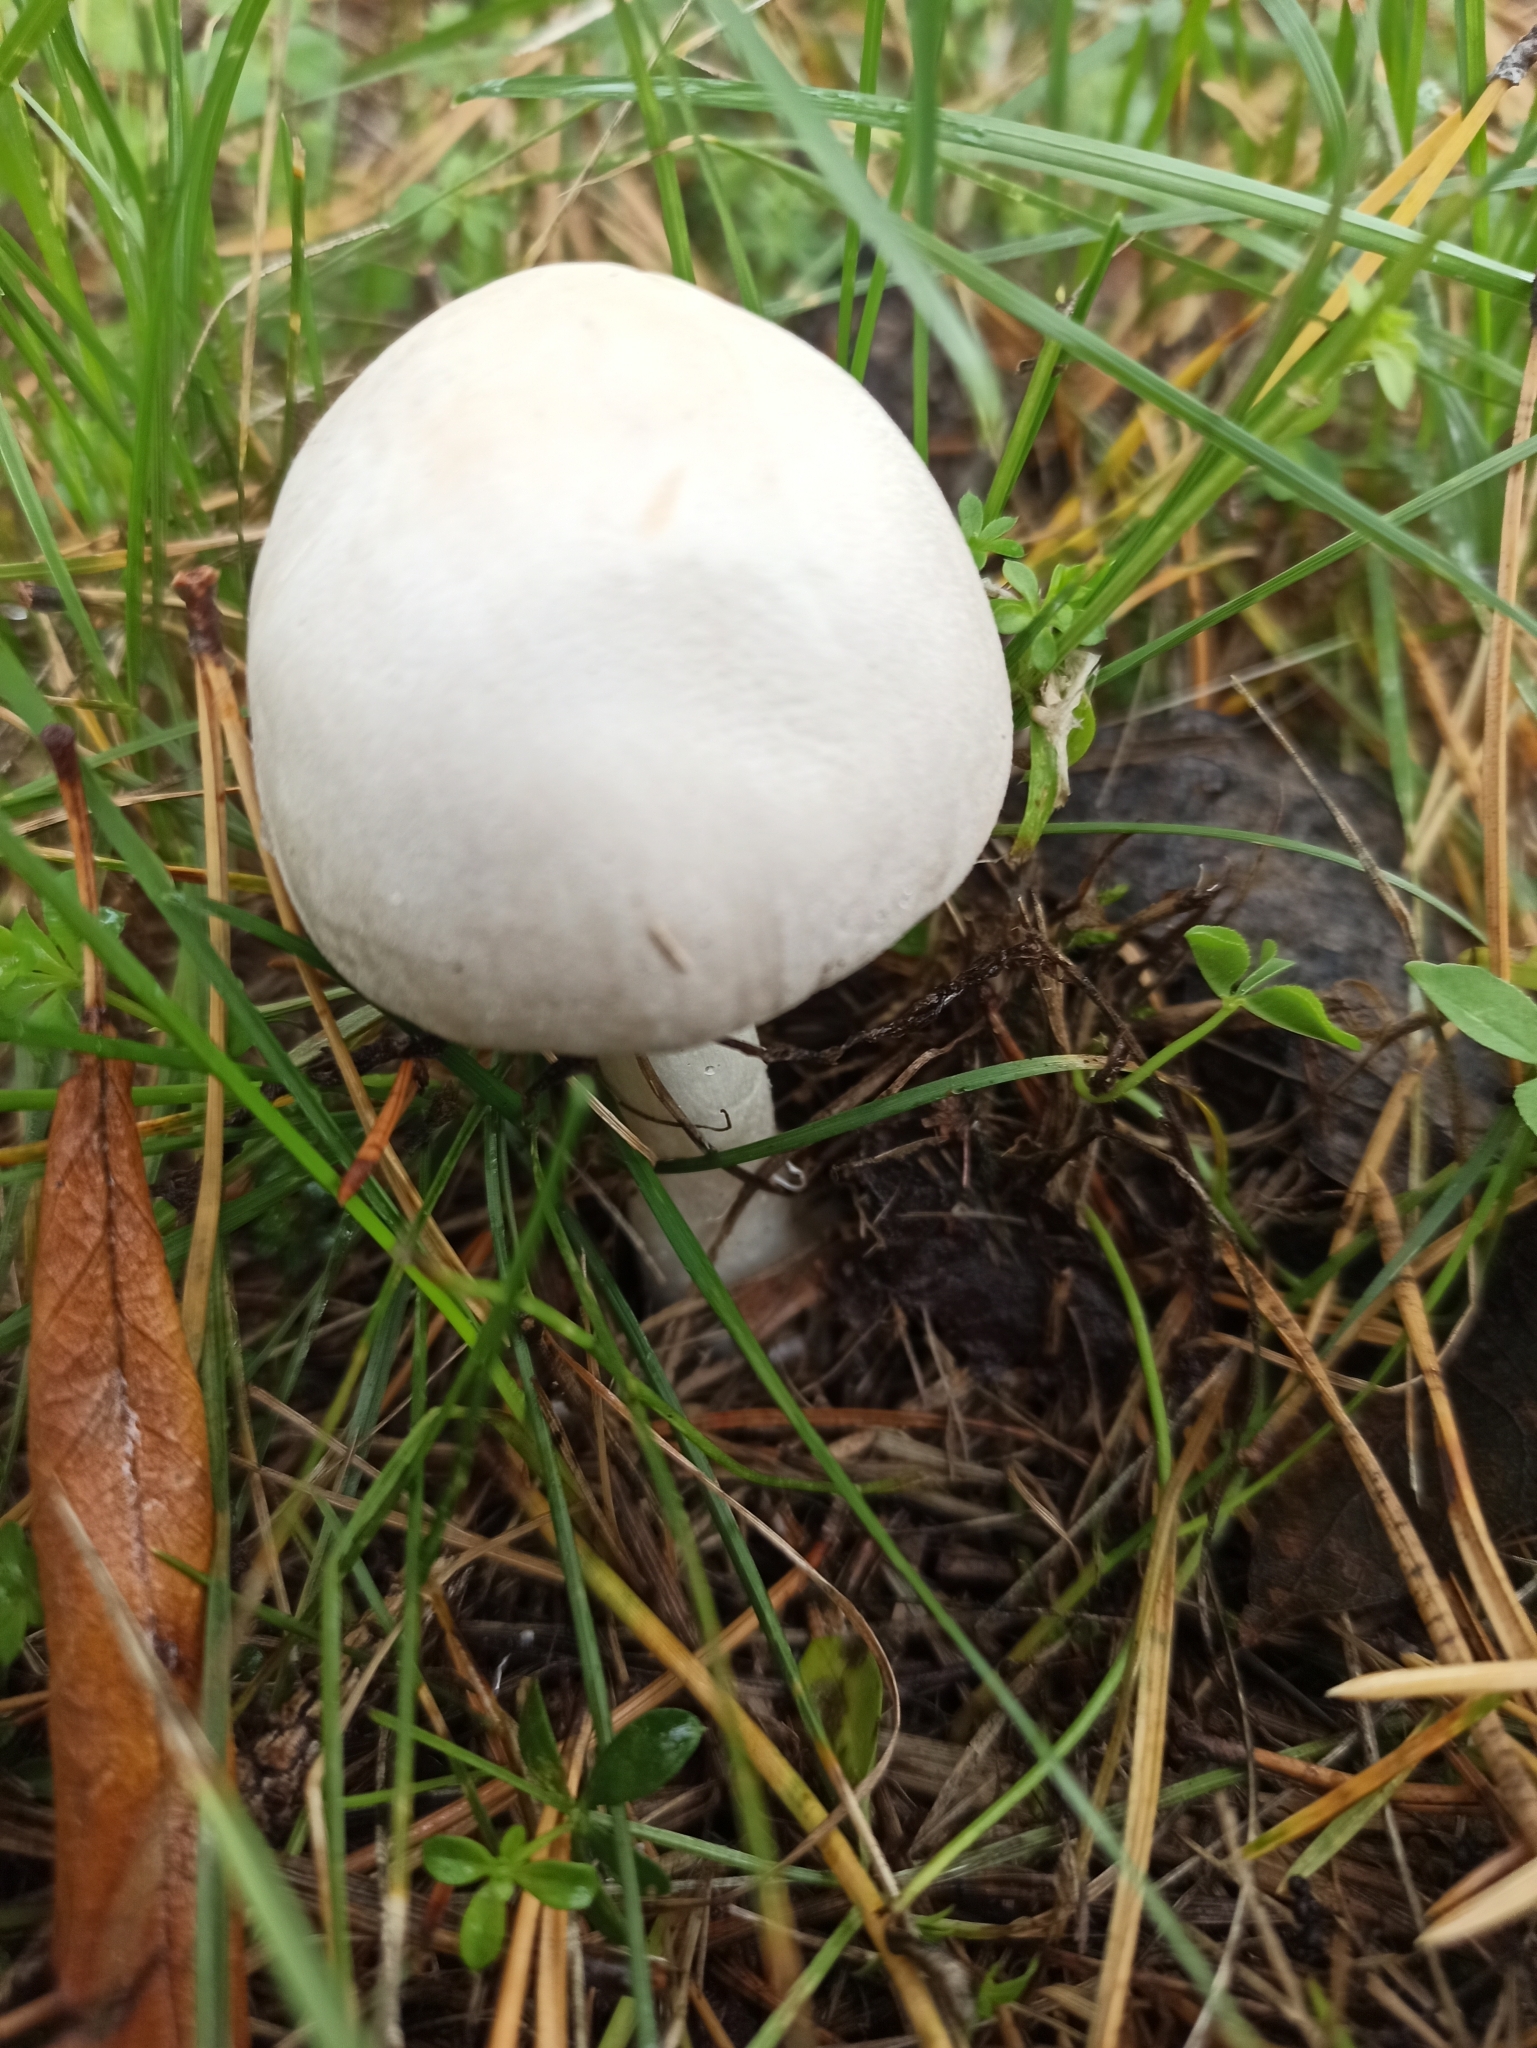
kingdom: Fungi
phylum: Basidiomycota
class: Agaricomycetes
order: Agaricales
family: Agaricaceae
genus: Leucoagaricus
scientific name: Leucoagaricus leucothites
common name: White dapperling
